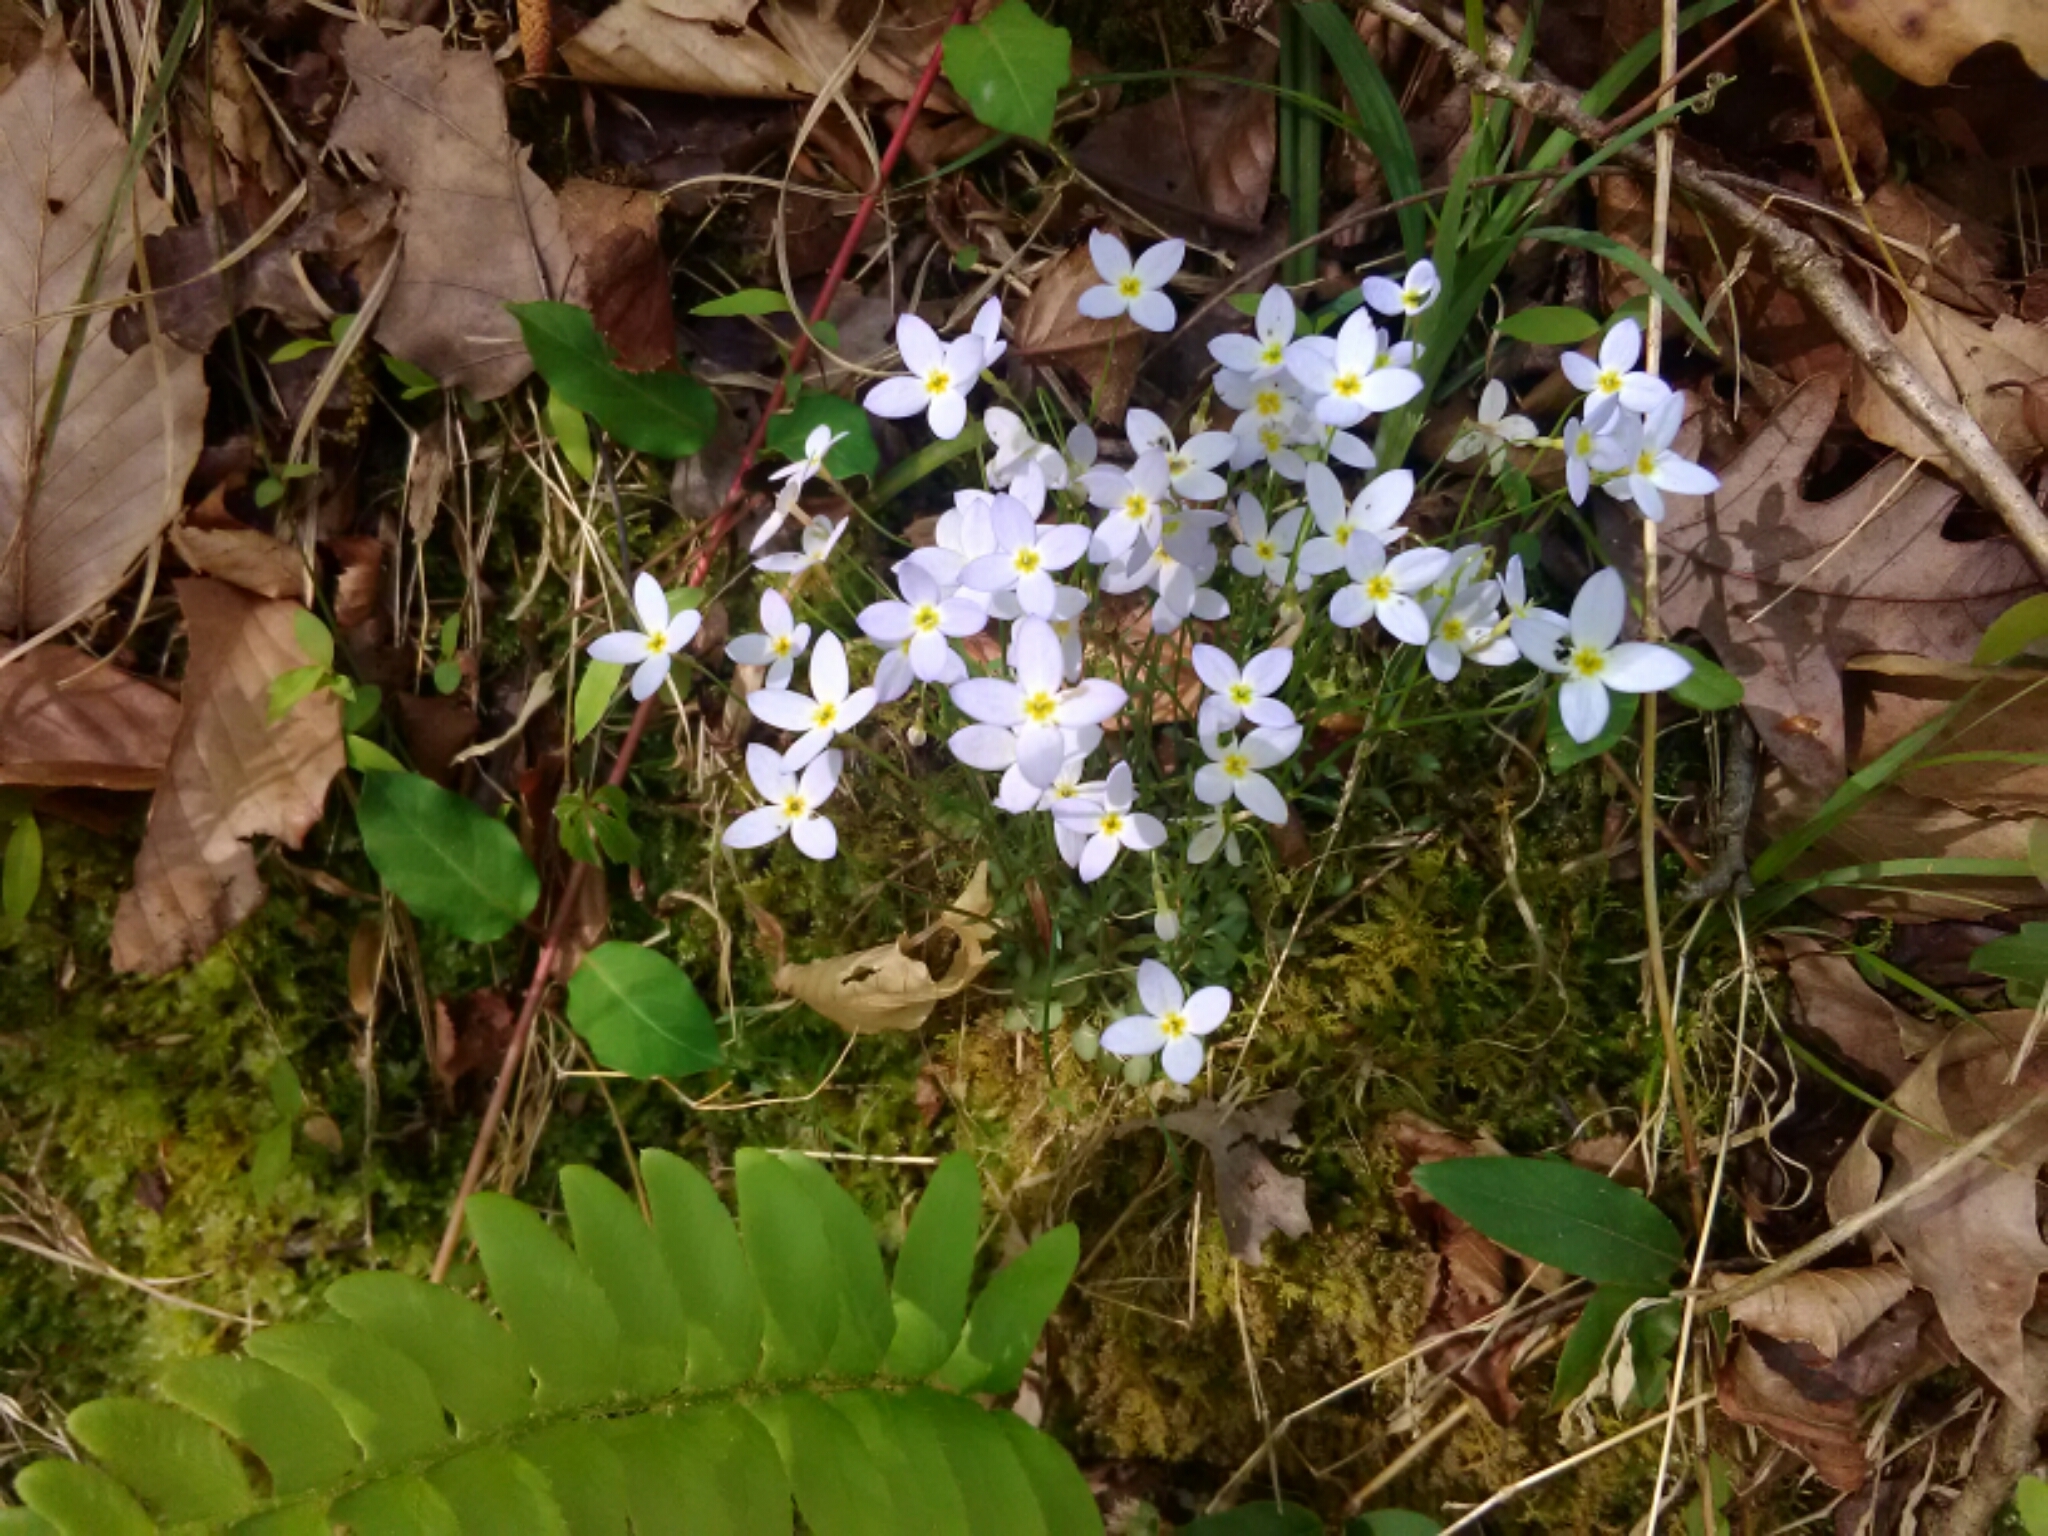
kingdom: Plantae
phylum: Tracheophyta
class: Magnoliopsida
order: Gentianales
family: Rubiaceae
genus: Houstonia
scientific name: Houstonia caerulea
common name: Bluets
